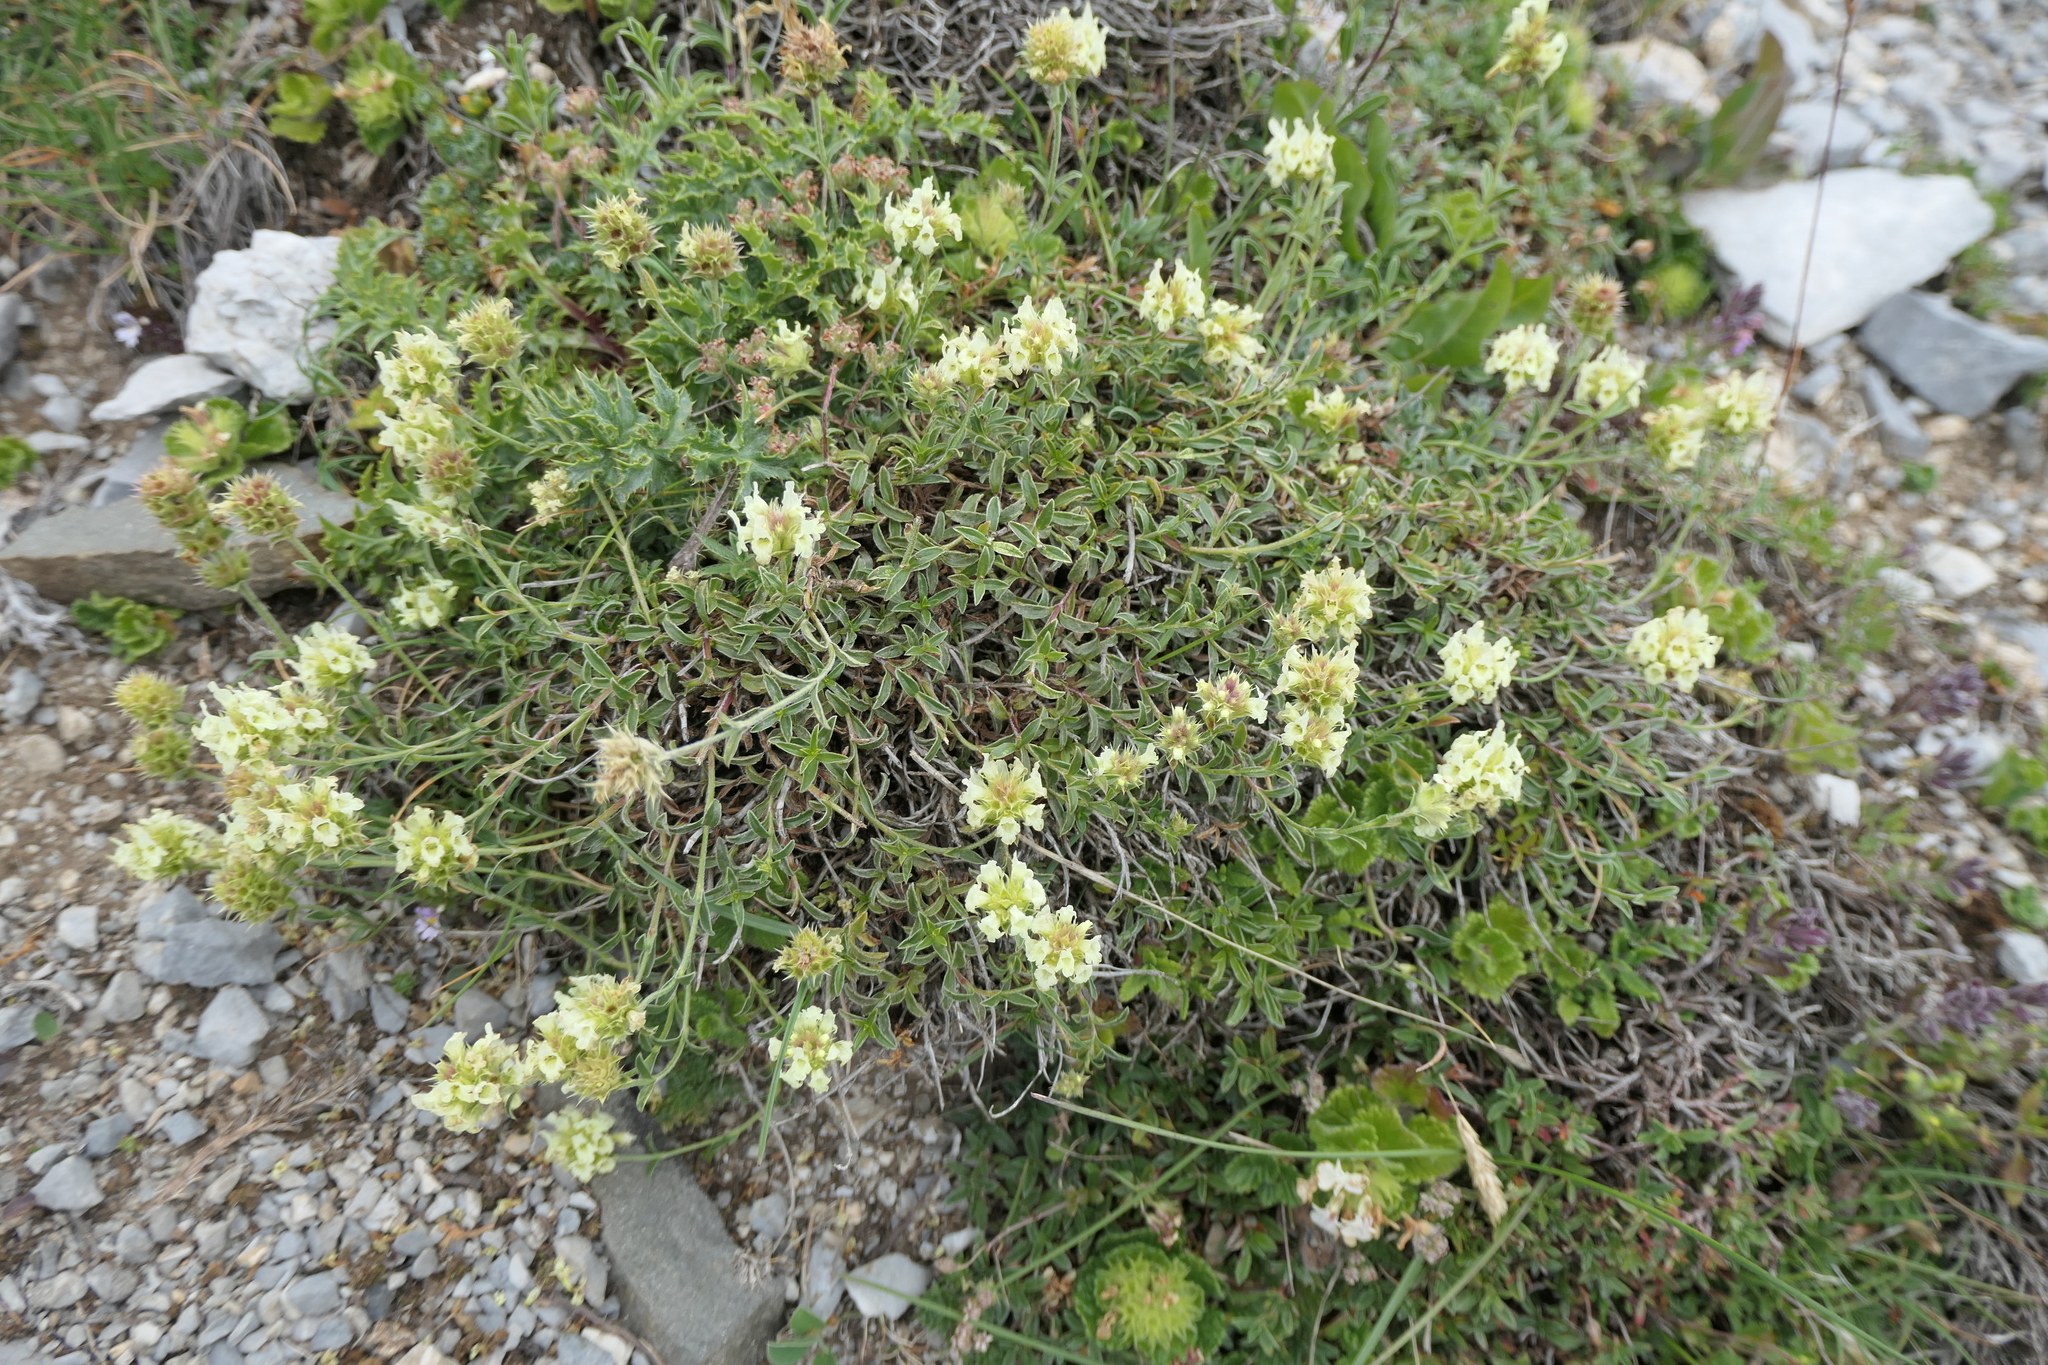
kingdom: Plantae
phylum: Tracheophyta
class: Magnoliopsida
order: Lamiales
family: Lamiaceae
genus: Sideritis
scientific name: Sideritis hyssopifolia
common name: Mountain tea
